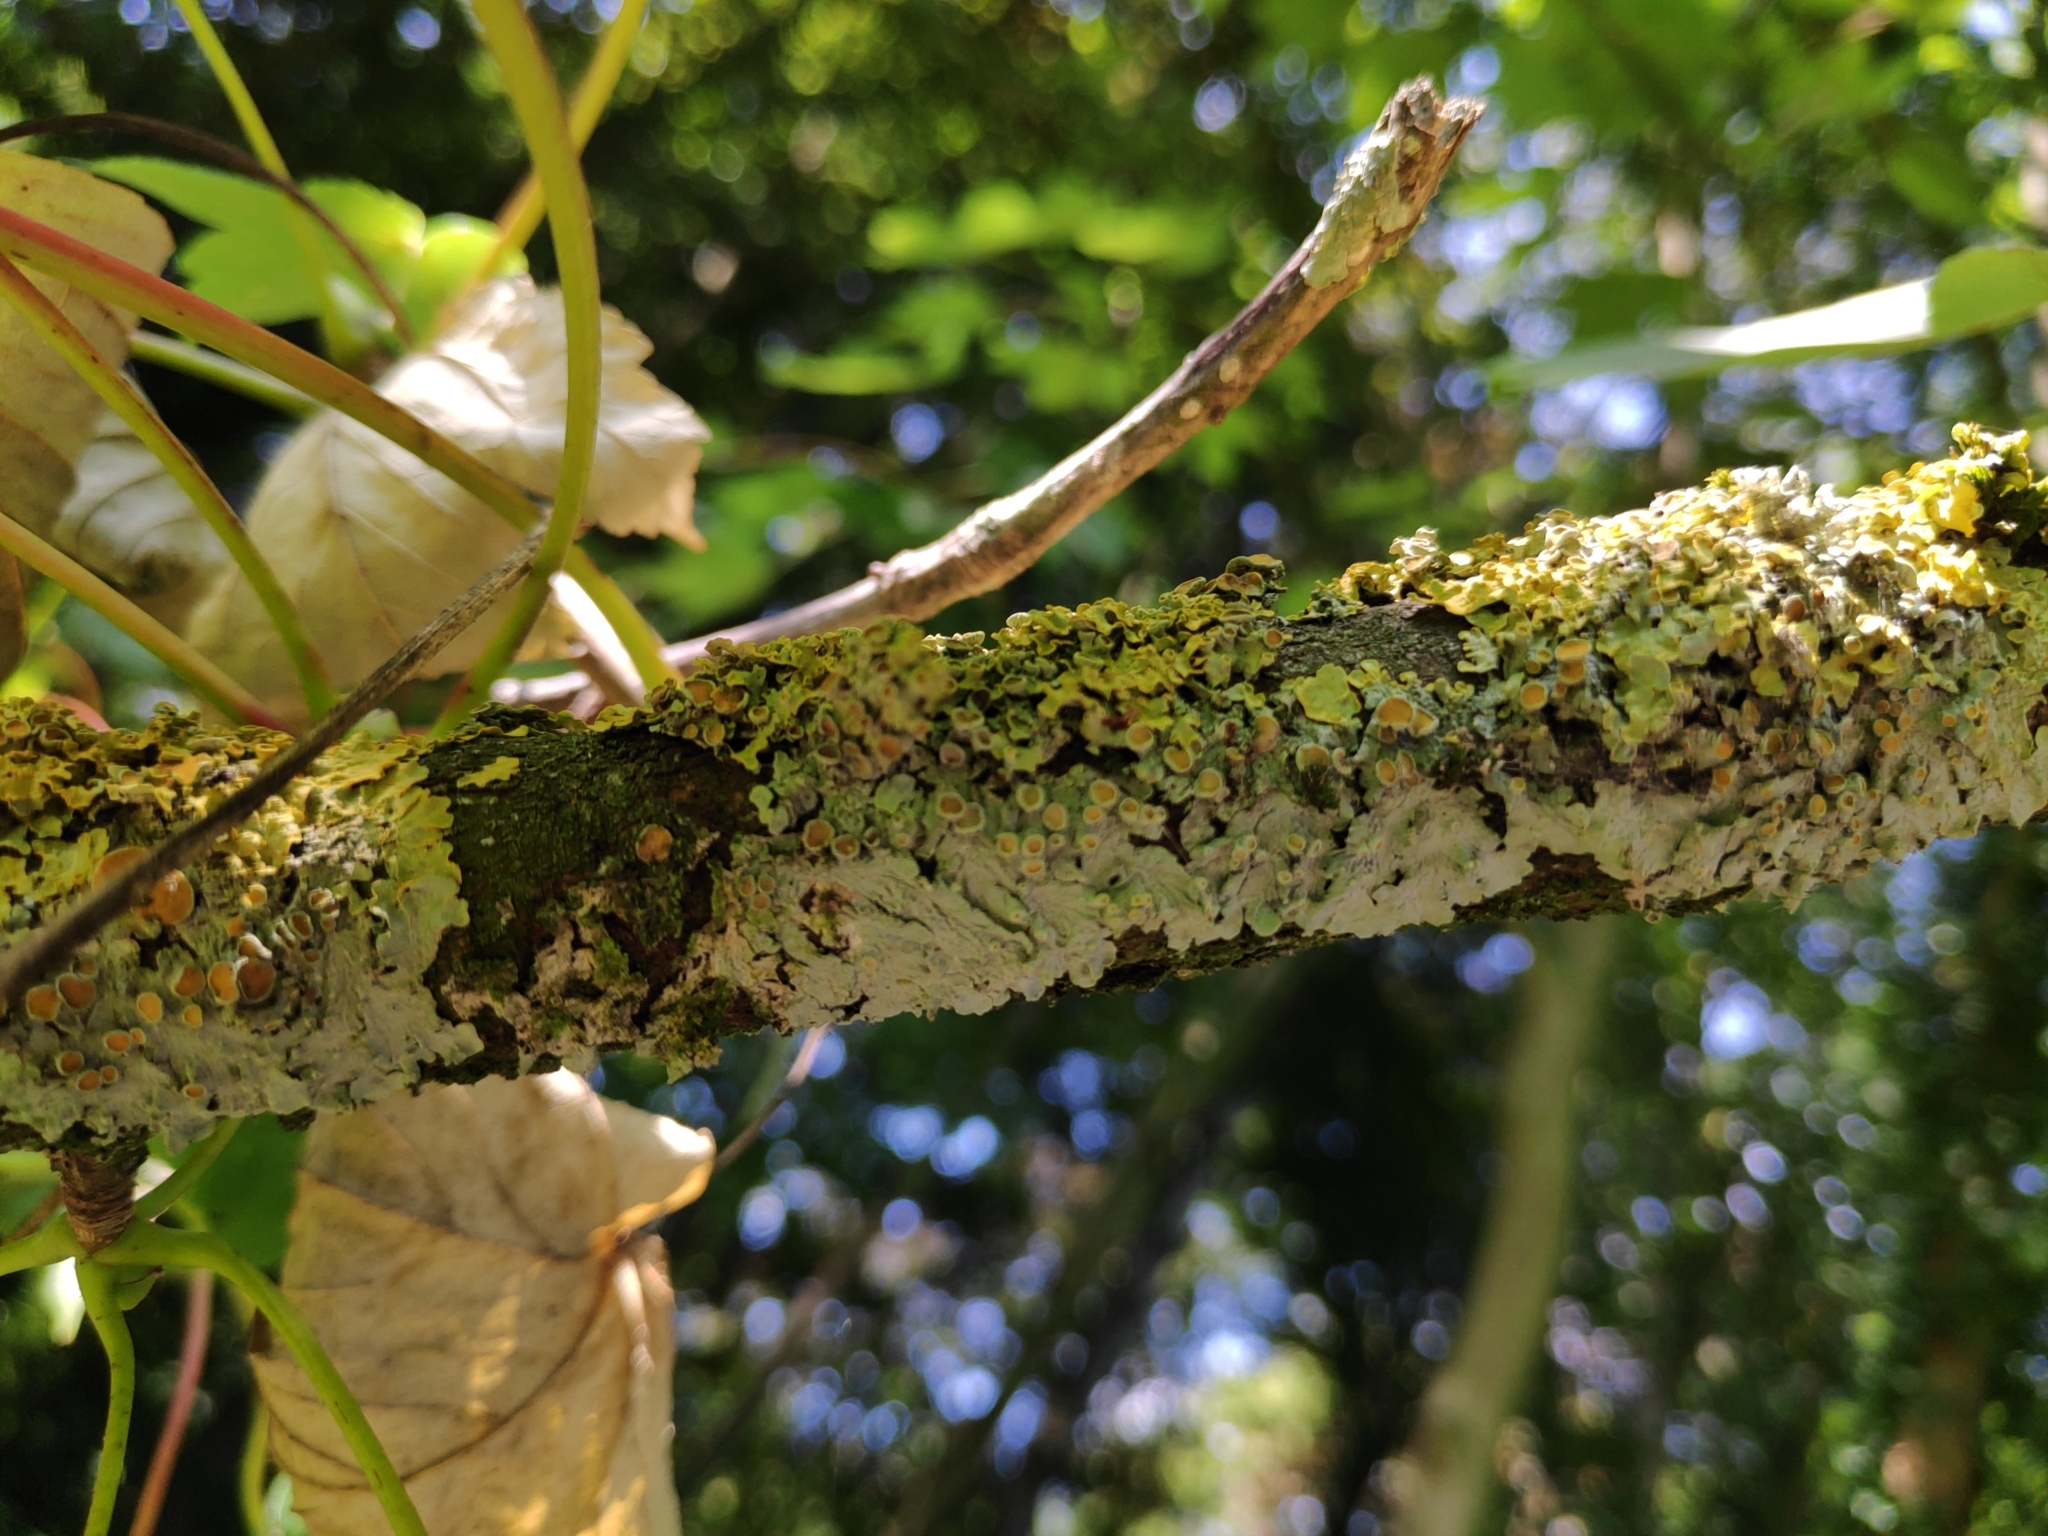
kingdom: Fungi
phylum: Ascomycota
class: Lecanoromycetes
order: Teloschistales
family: Teloschistaceae
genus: Xanthoria
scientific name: Xanthoria parietina
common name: Common orange lichen
